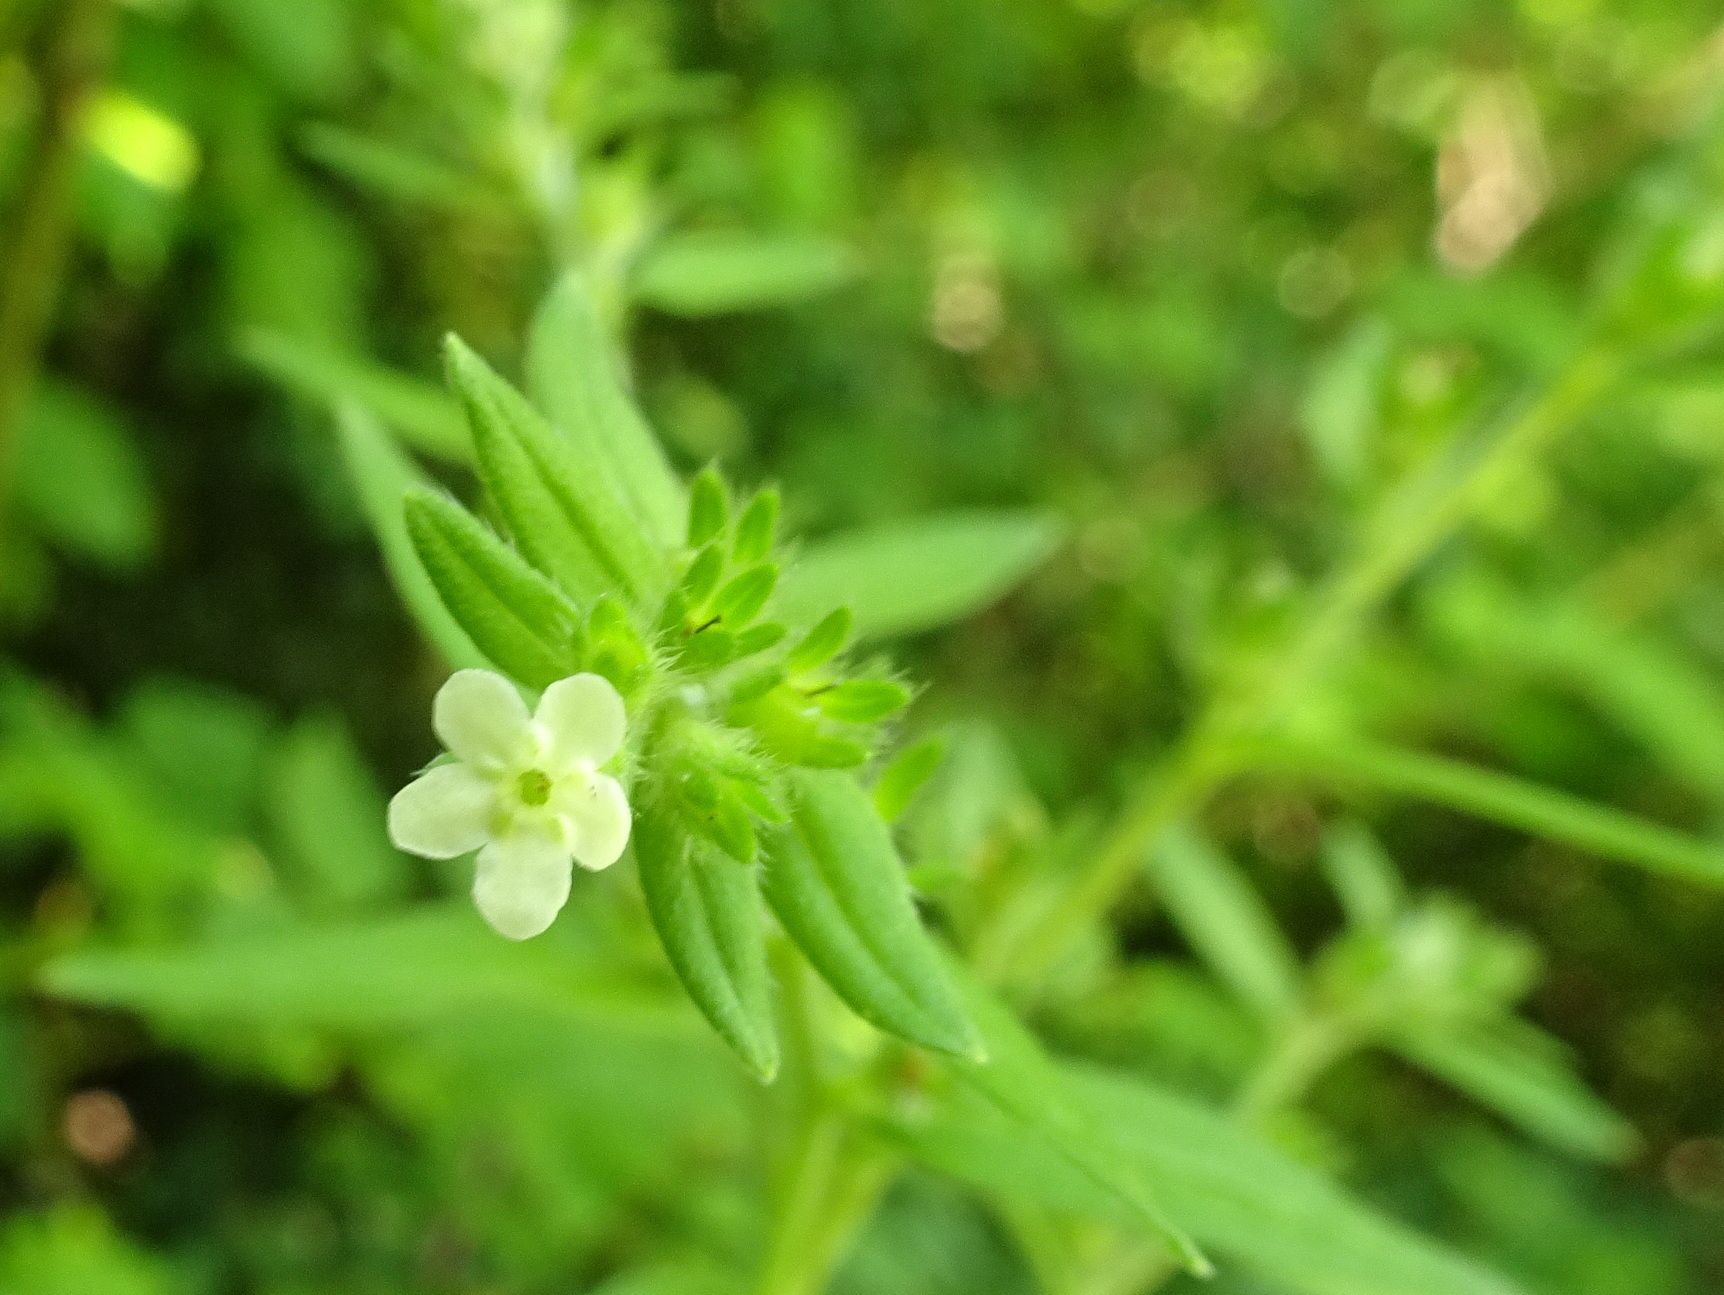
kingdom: Plantae
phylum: Tracheophyta
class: Magnoliopsida
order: Boraginales
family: Boraginaceae
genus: Lithospermum
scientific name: Lithospermum officinale
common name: Common gromwell
